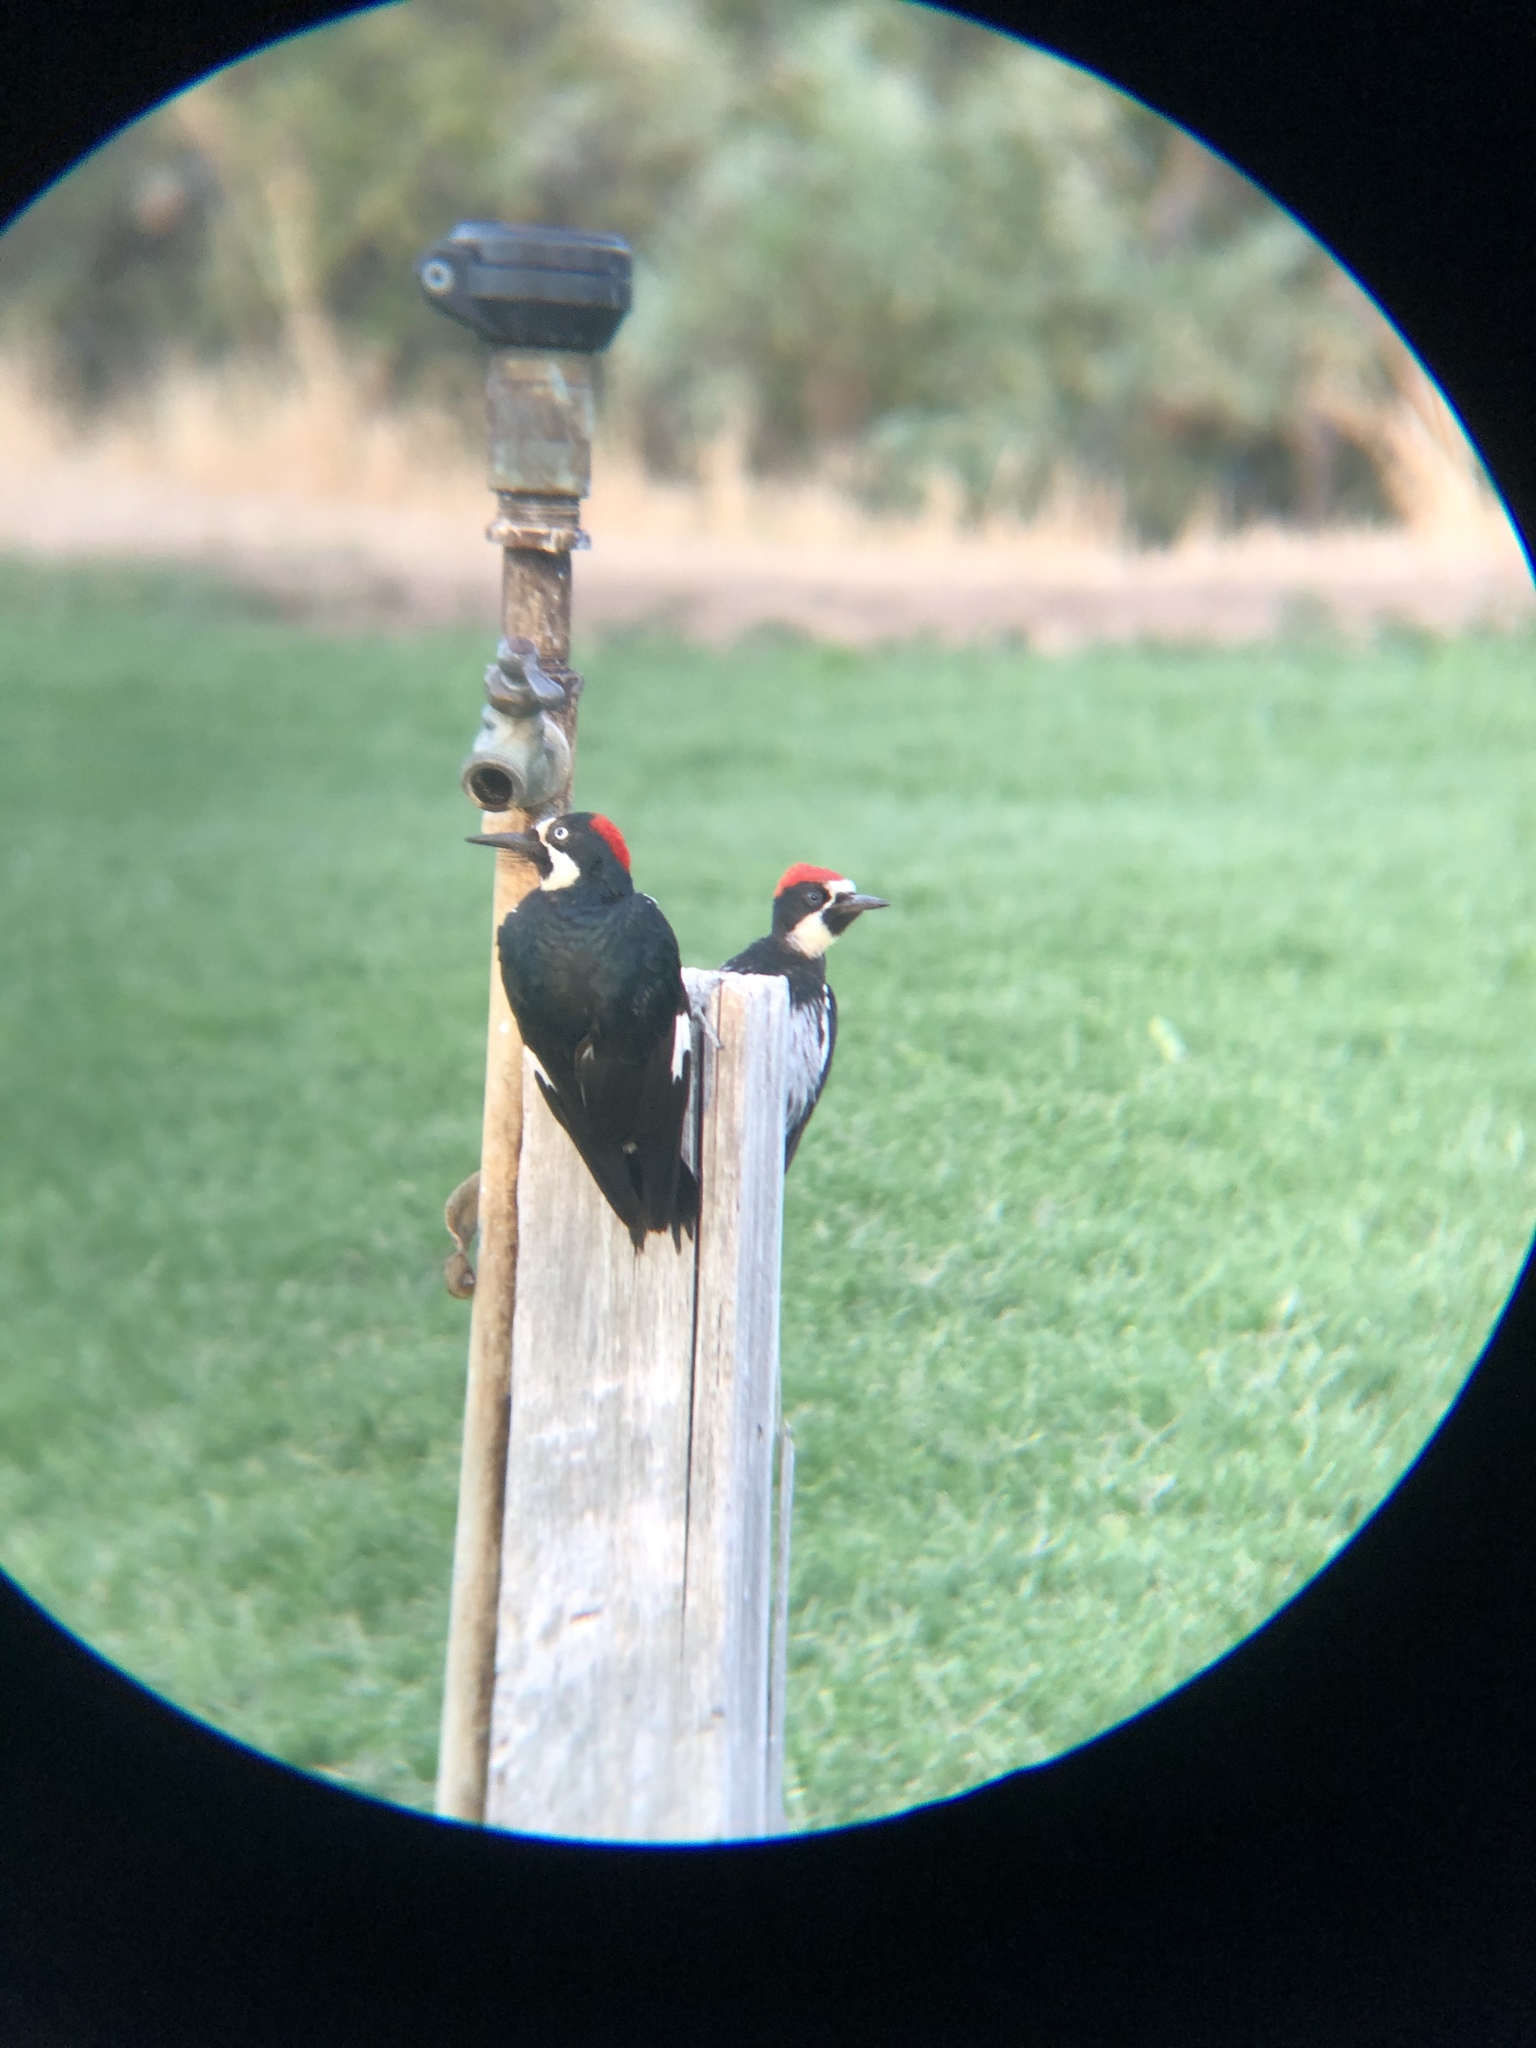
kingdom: Animalia
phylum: Chordata
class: Aves
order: Piciformes
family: Picidae
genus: Melanerpes
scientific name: Melanerpes formicivorus
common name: Acorn woodpecker
